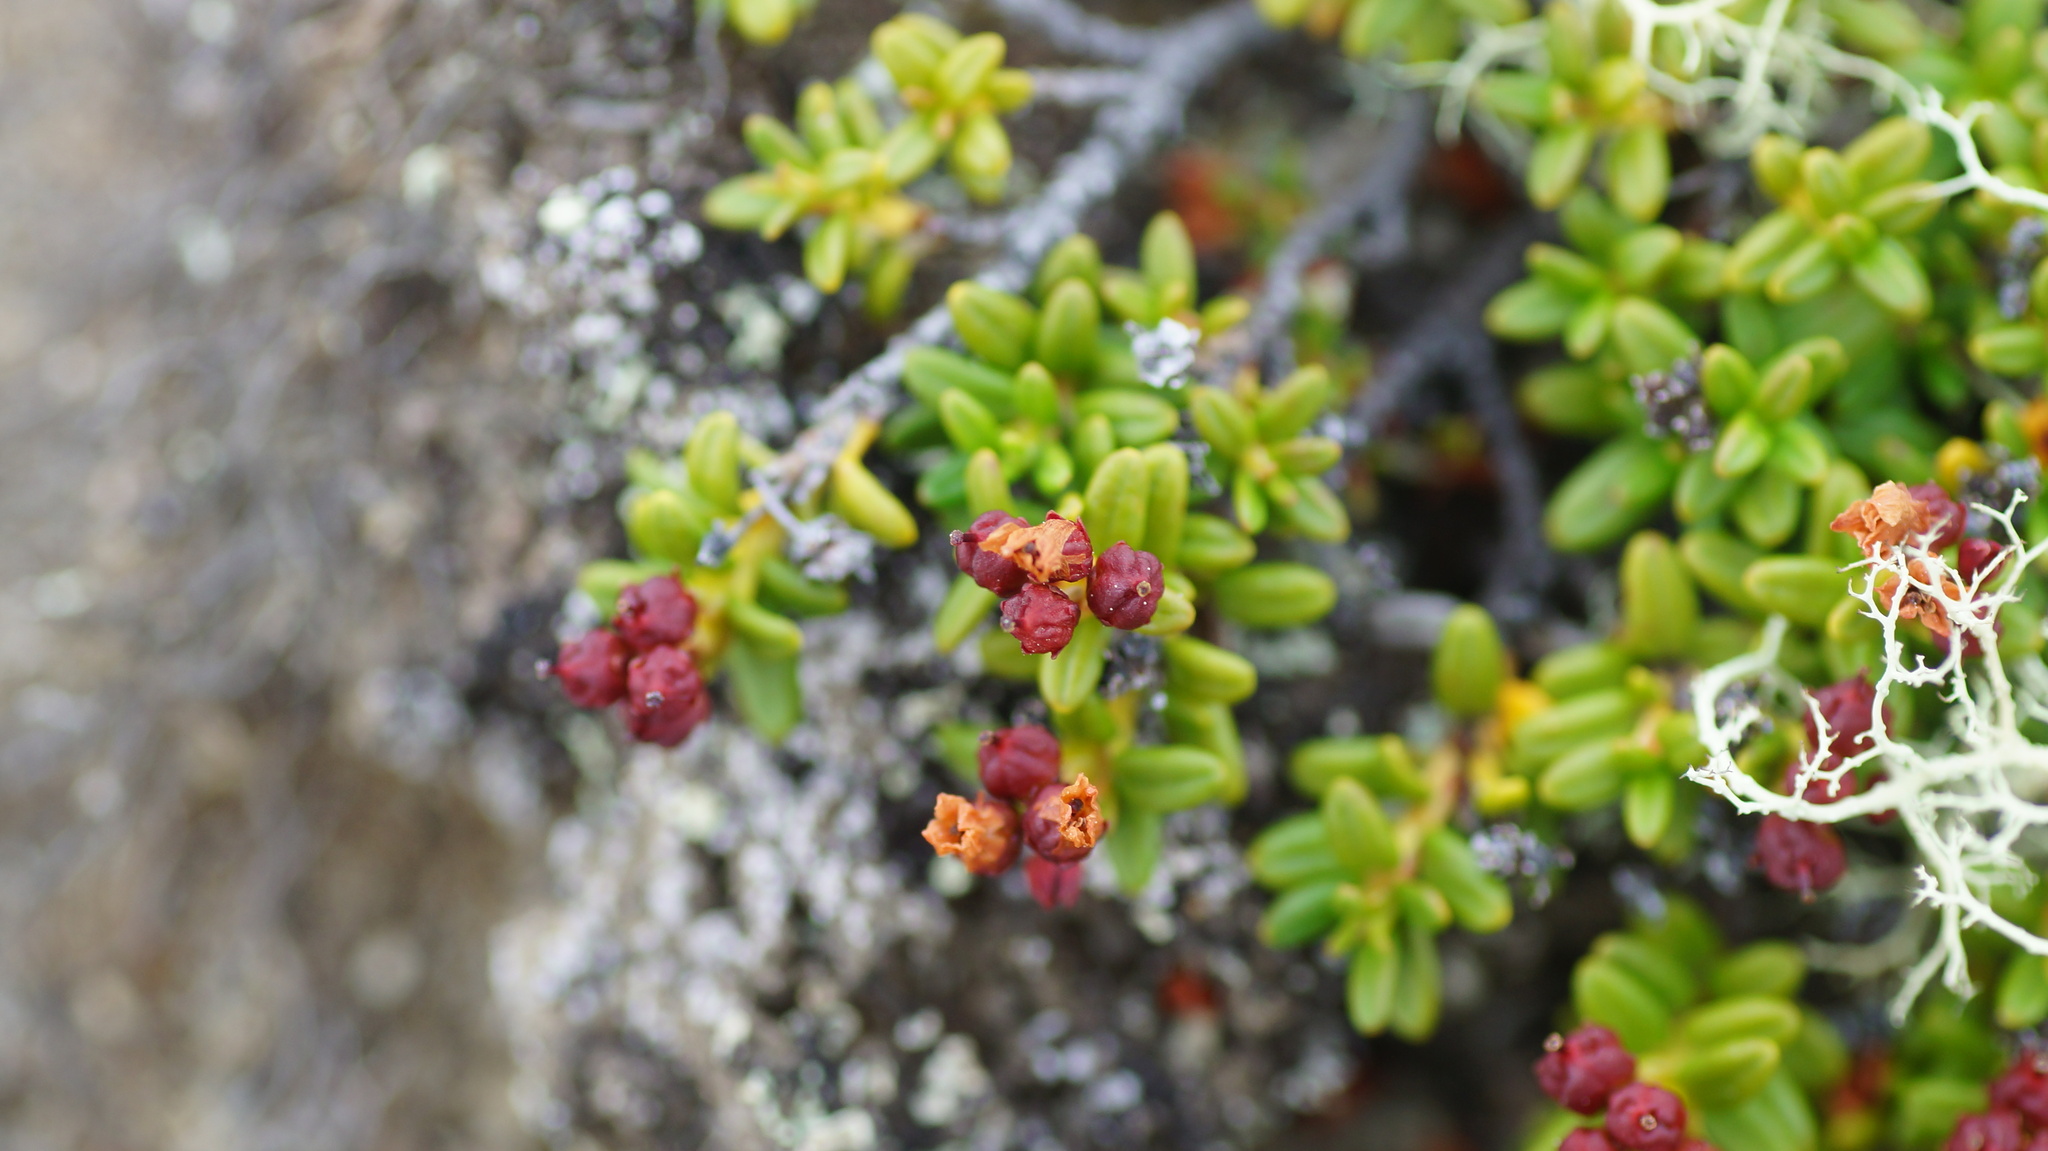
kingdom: Plantae
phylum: Tracheophyta
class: Magnoliopsida
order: Ericales
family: Ericaceae
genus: Kalmia
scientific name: Kalmia procumbens
